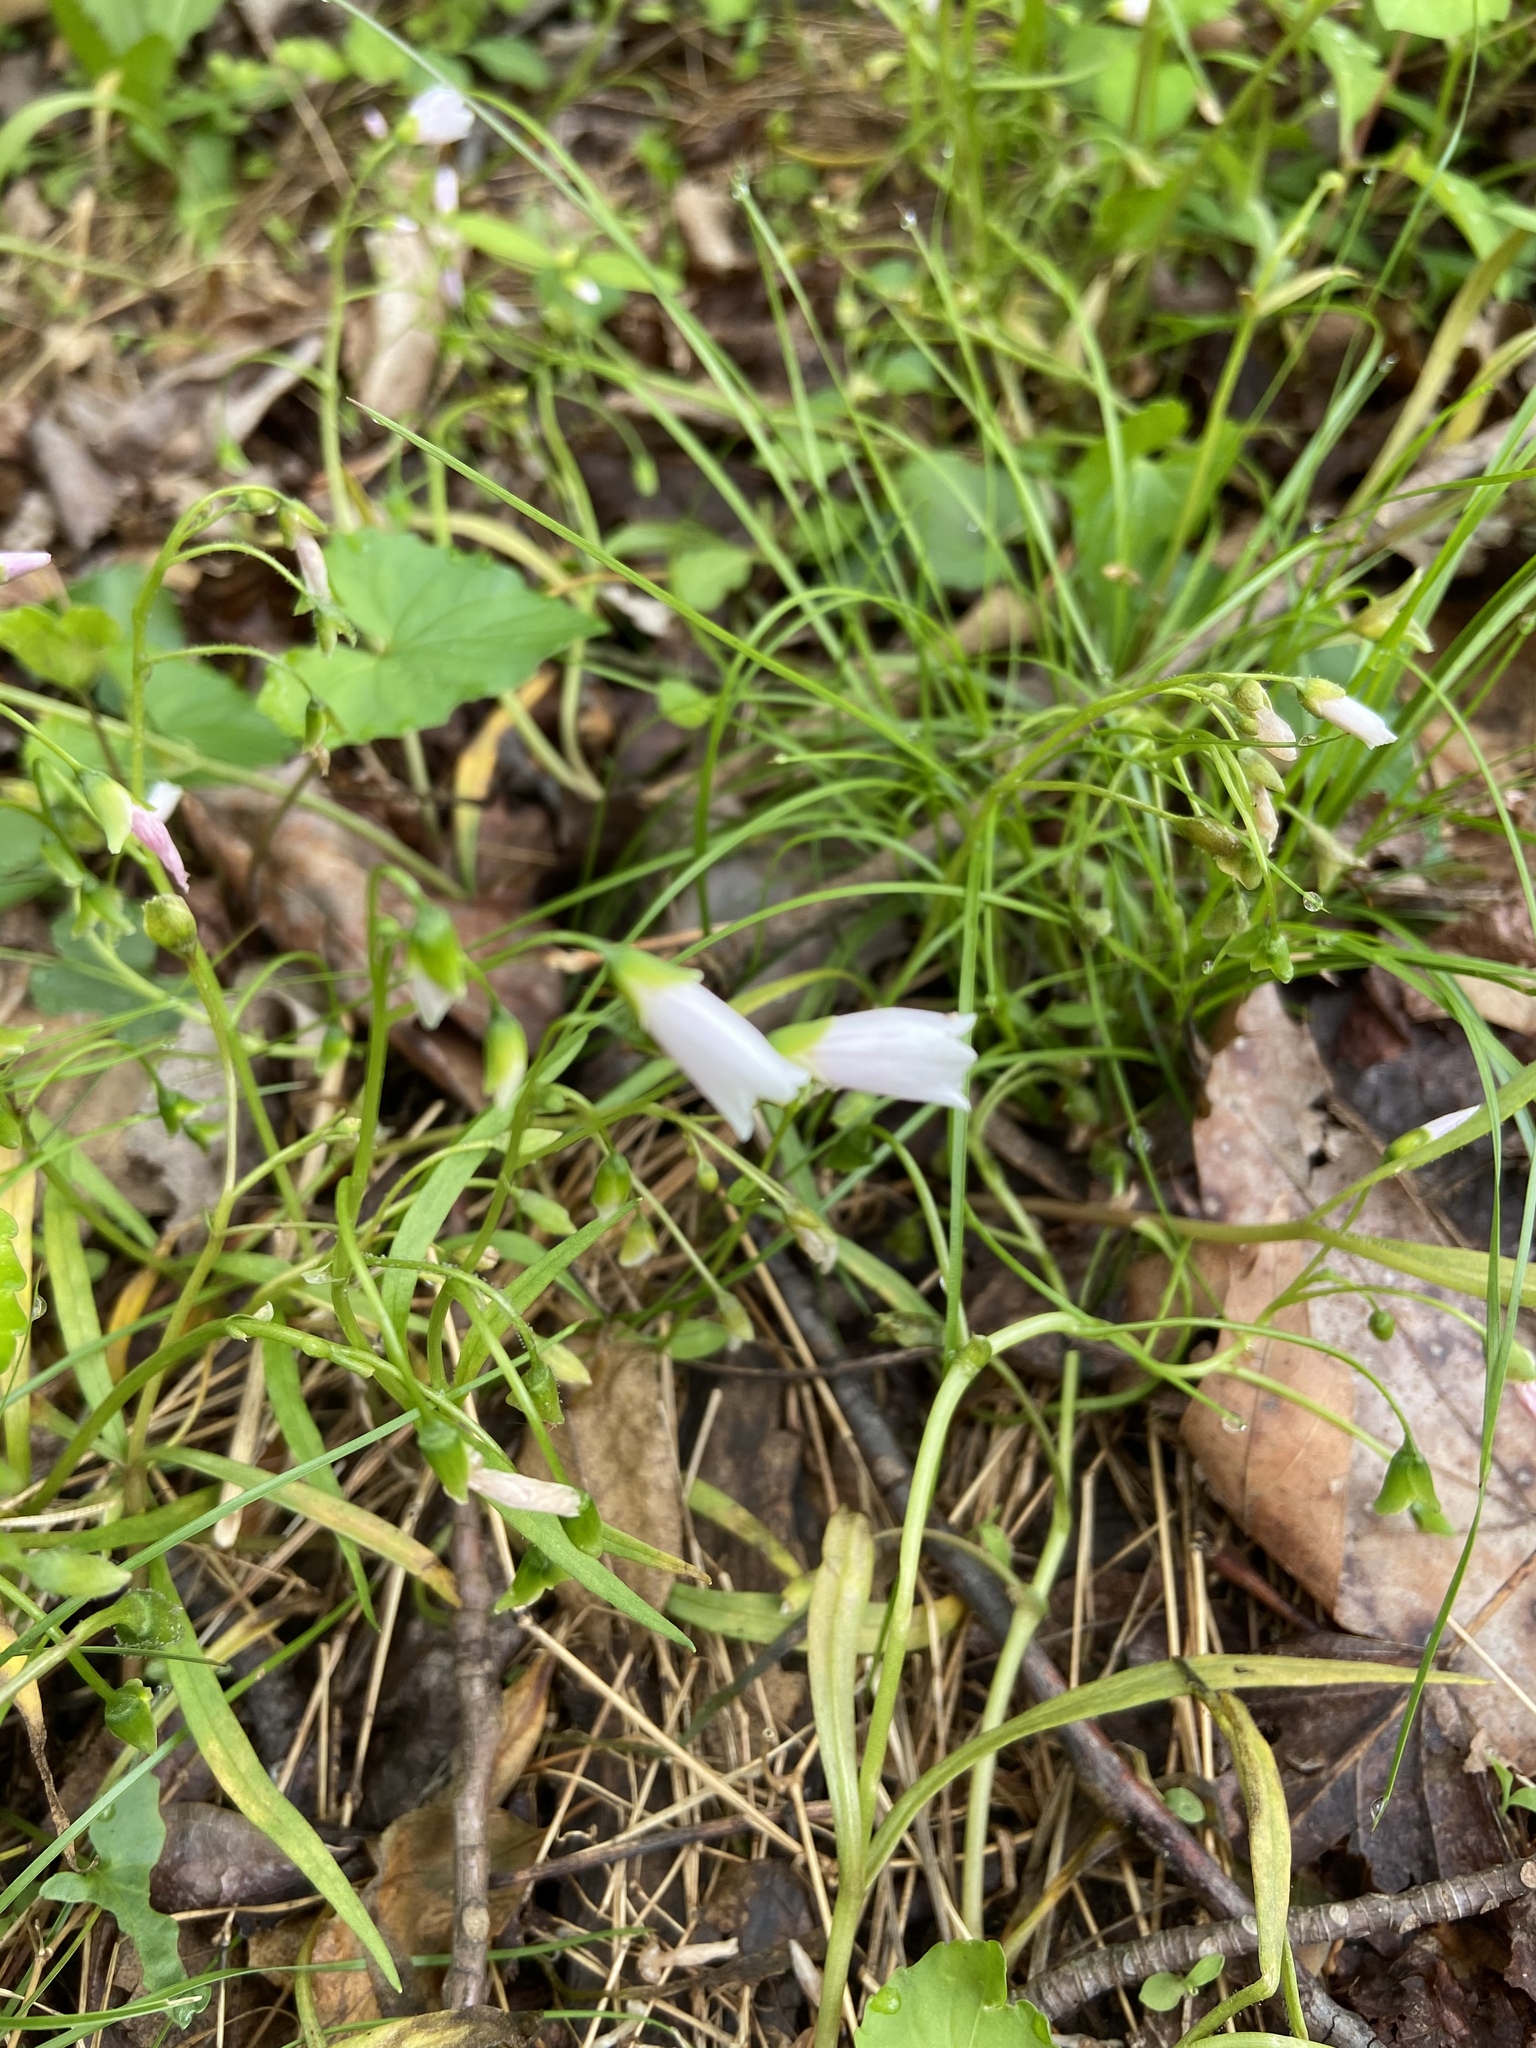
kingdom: Plantae
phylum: Tracheophyta
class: Magnoliopsida
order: Caryophyllales
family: Montiaceae
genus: Claytonia
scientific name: Claytonia virginica
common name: Virginia springbeauty
